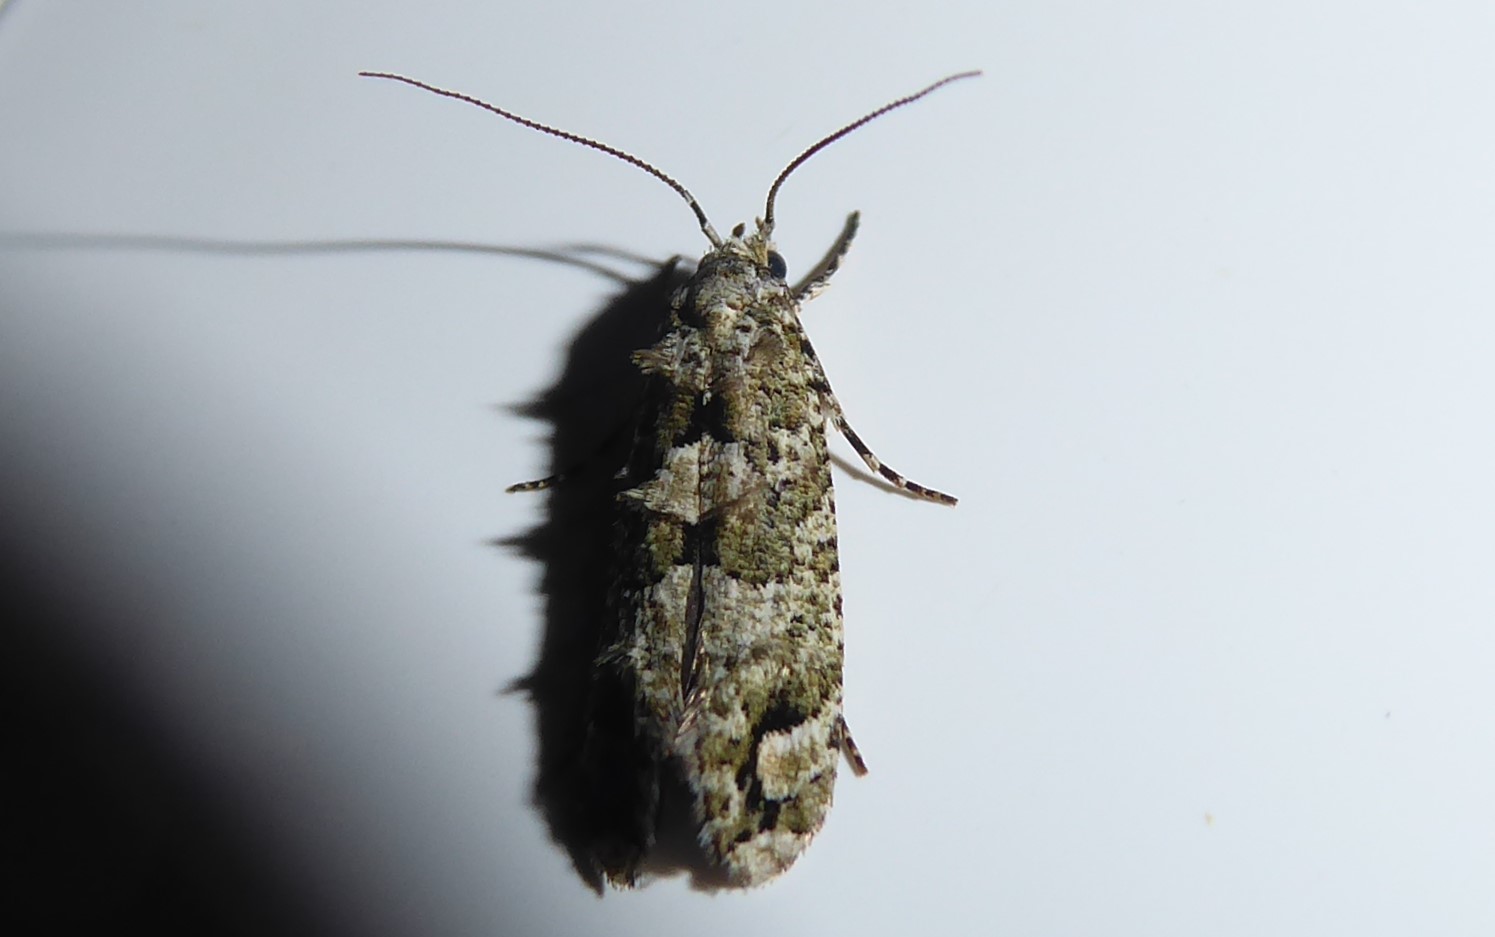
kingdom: Animalia
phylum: Arthropoda
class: Insecta
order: Lepidoptera
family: Tineidae
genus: Lysiphragma
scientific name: Lysiphragma howesii
